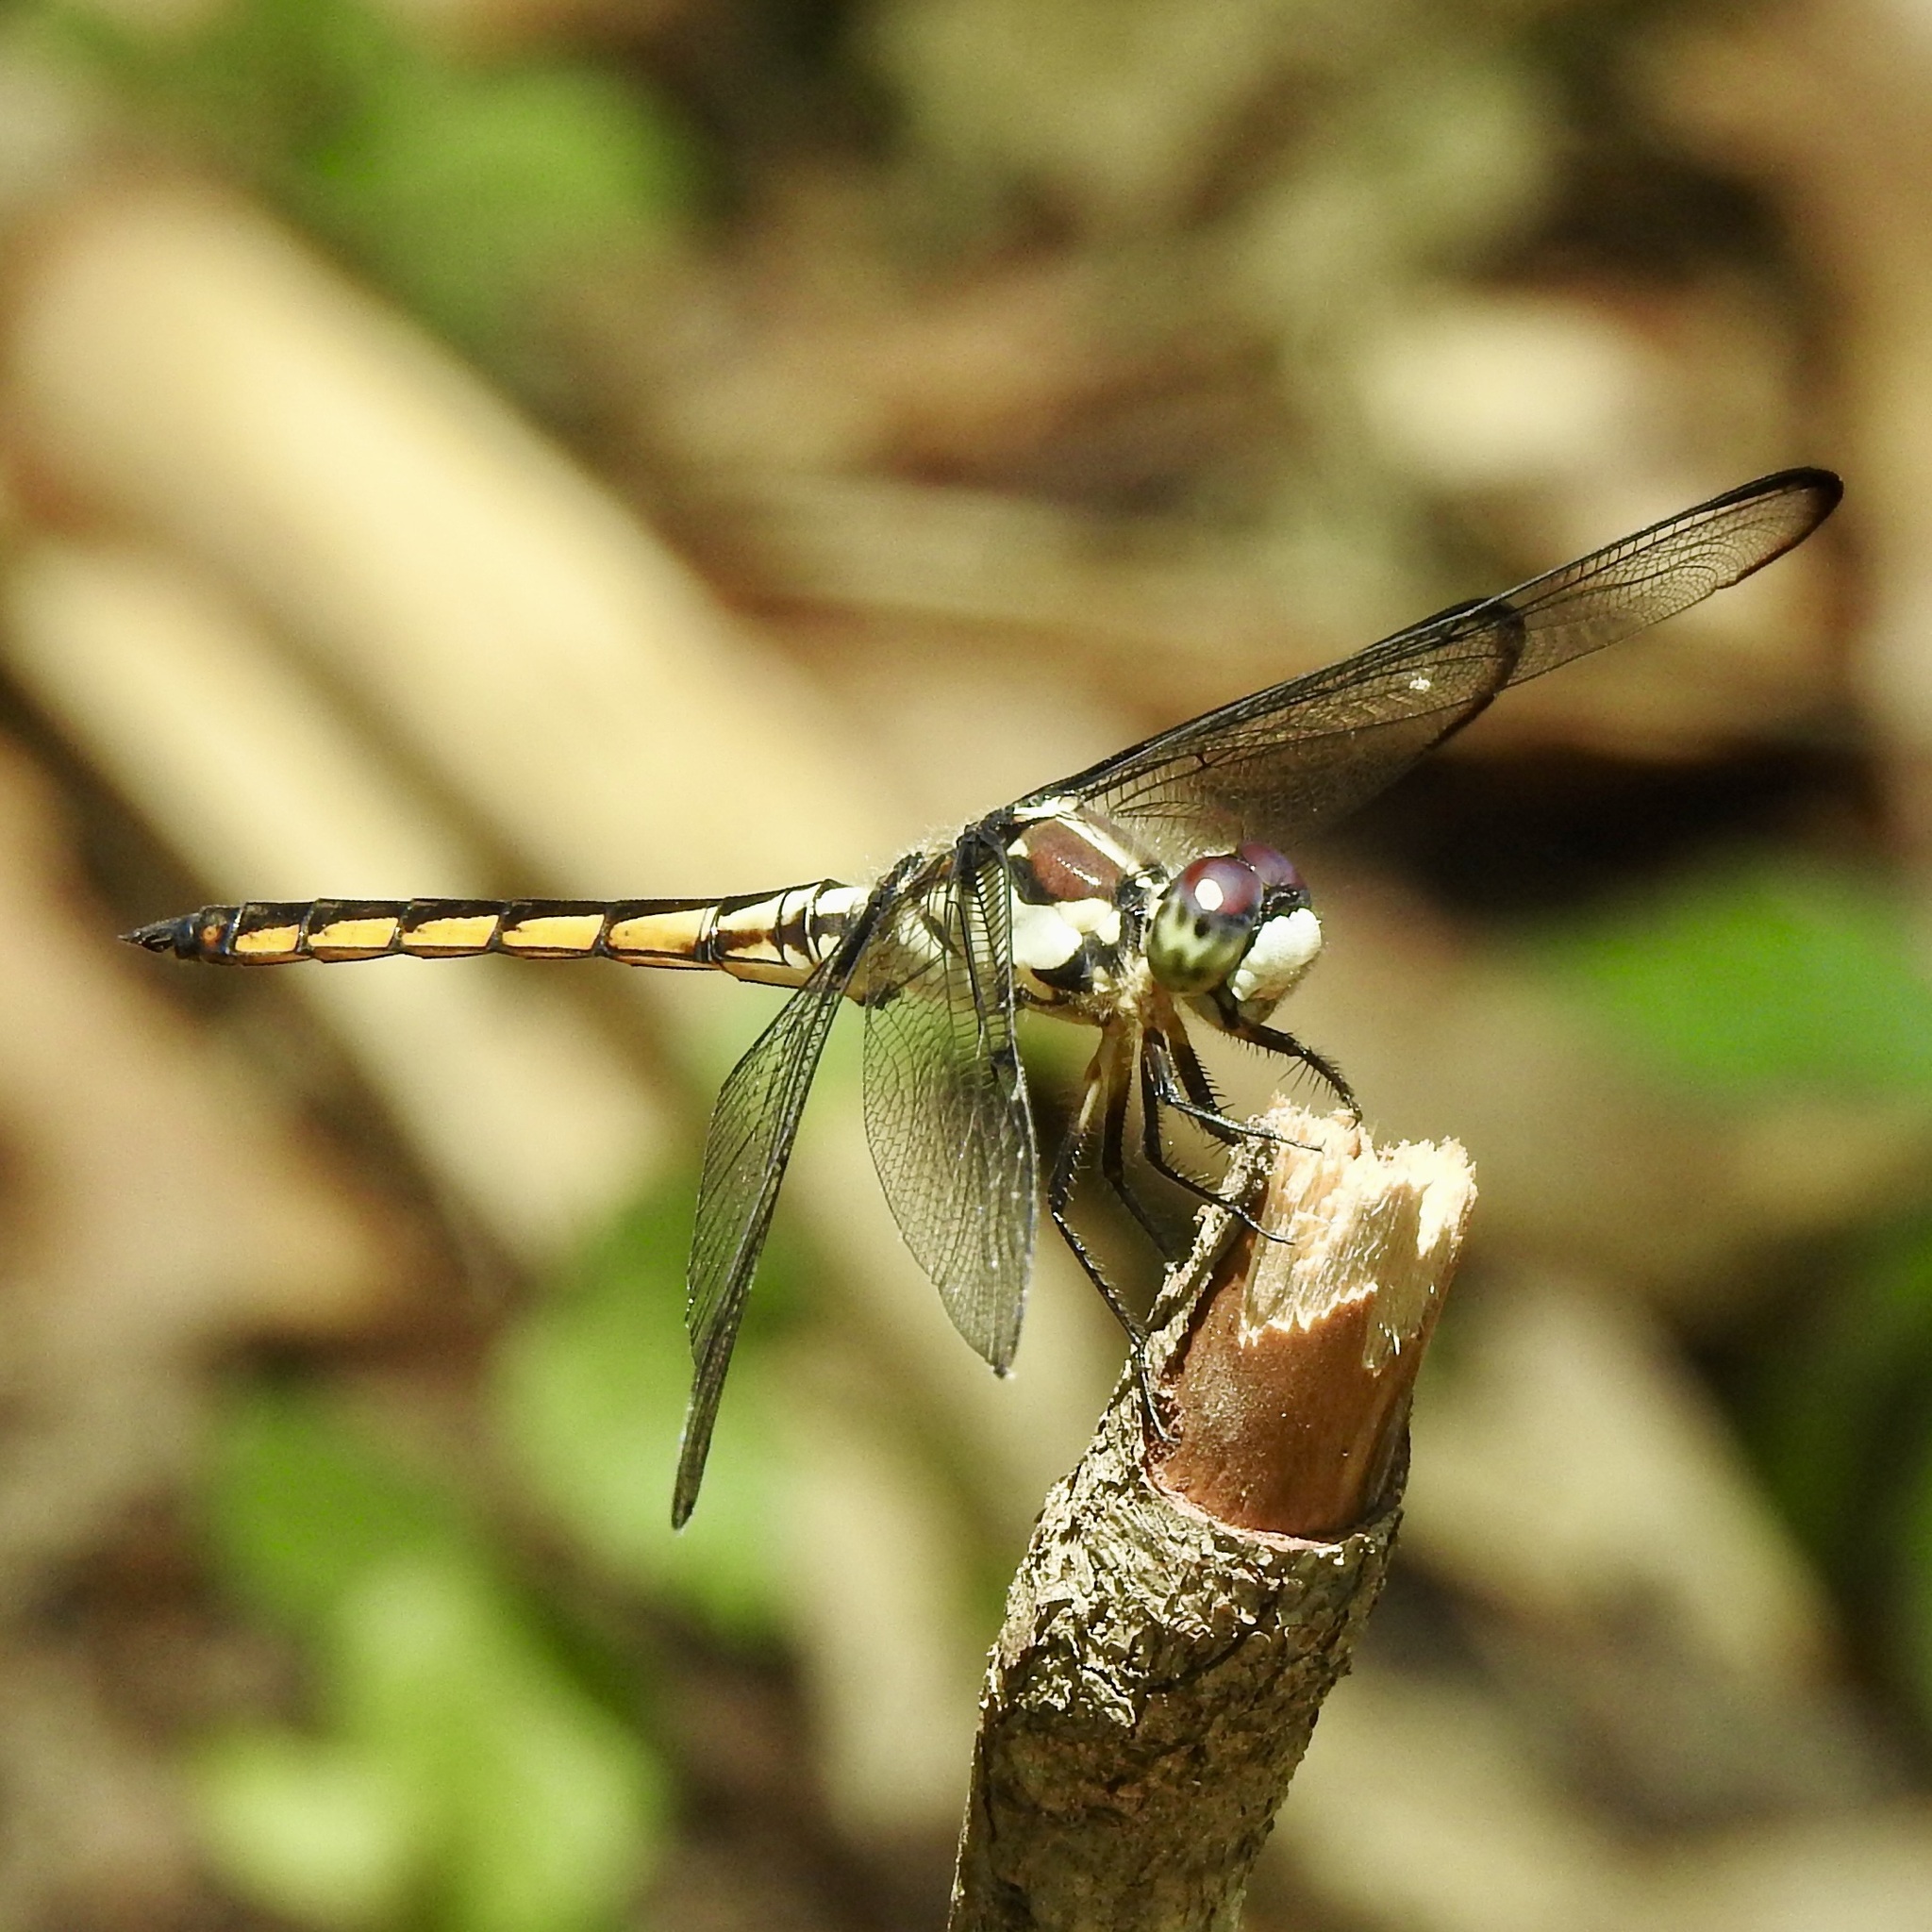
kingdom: Animalia
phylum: Arthropoda
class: Insecta
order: Odonata
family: Libellulidae
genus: Libellula
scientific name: Libellula vibrans
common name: Great blue skimmer
